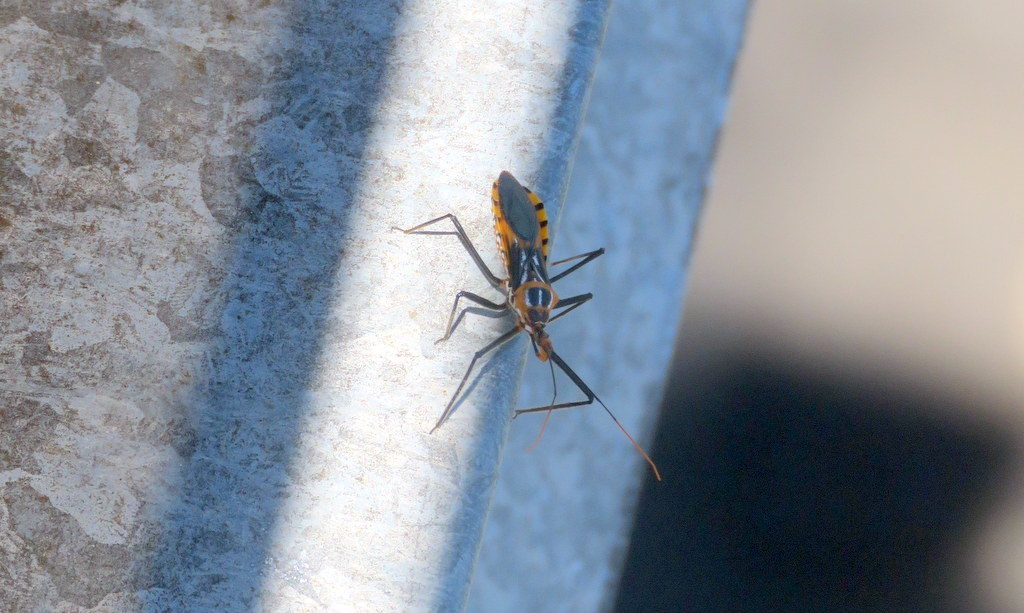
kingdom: Animalia
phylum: Arthropoda
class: Insecta
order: Hemiptera
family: Reduviidae
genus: Zelus
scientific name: Zelus leucogrammus
